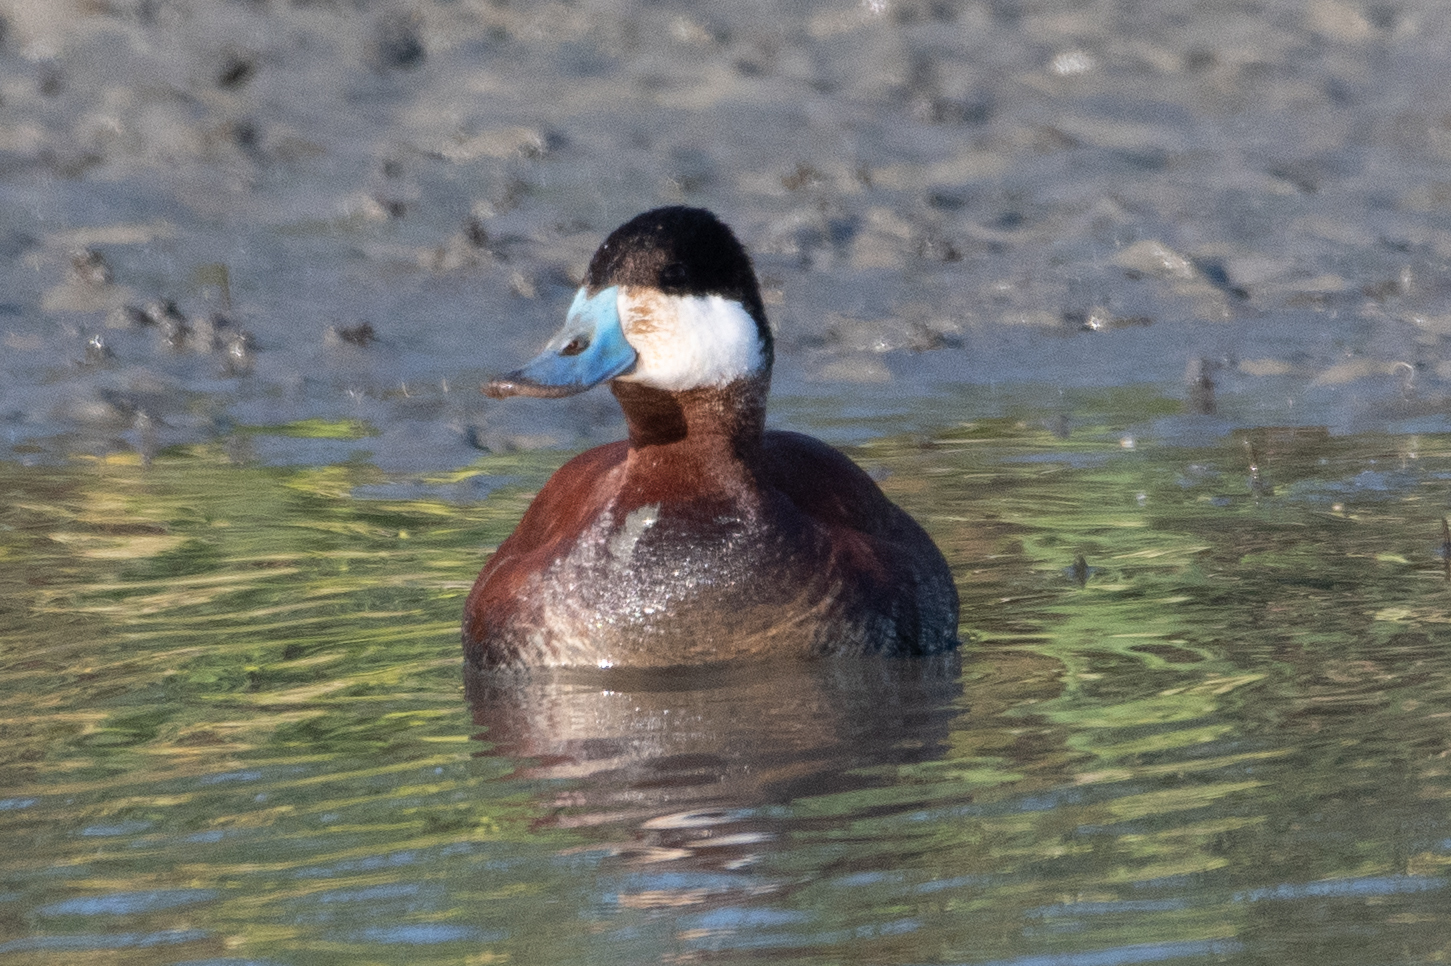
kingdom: Animalia
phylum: Chordata
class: Aves
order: Anseriformes
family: Anatidae
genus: Oxyura
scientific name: Oxyura jamaicensis
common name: Ruddy duck
